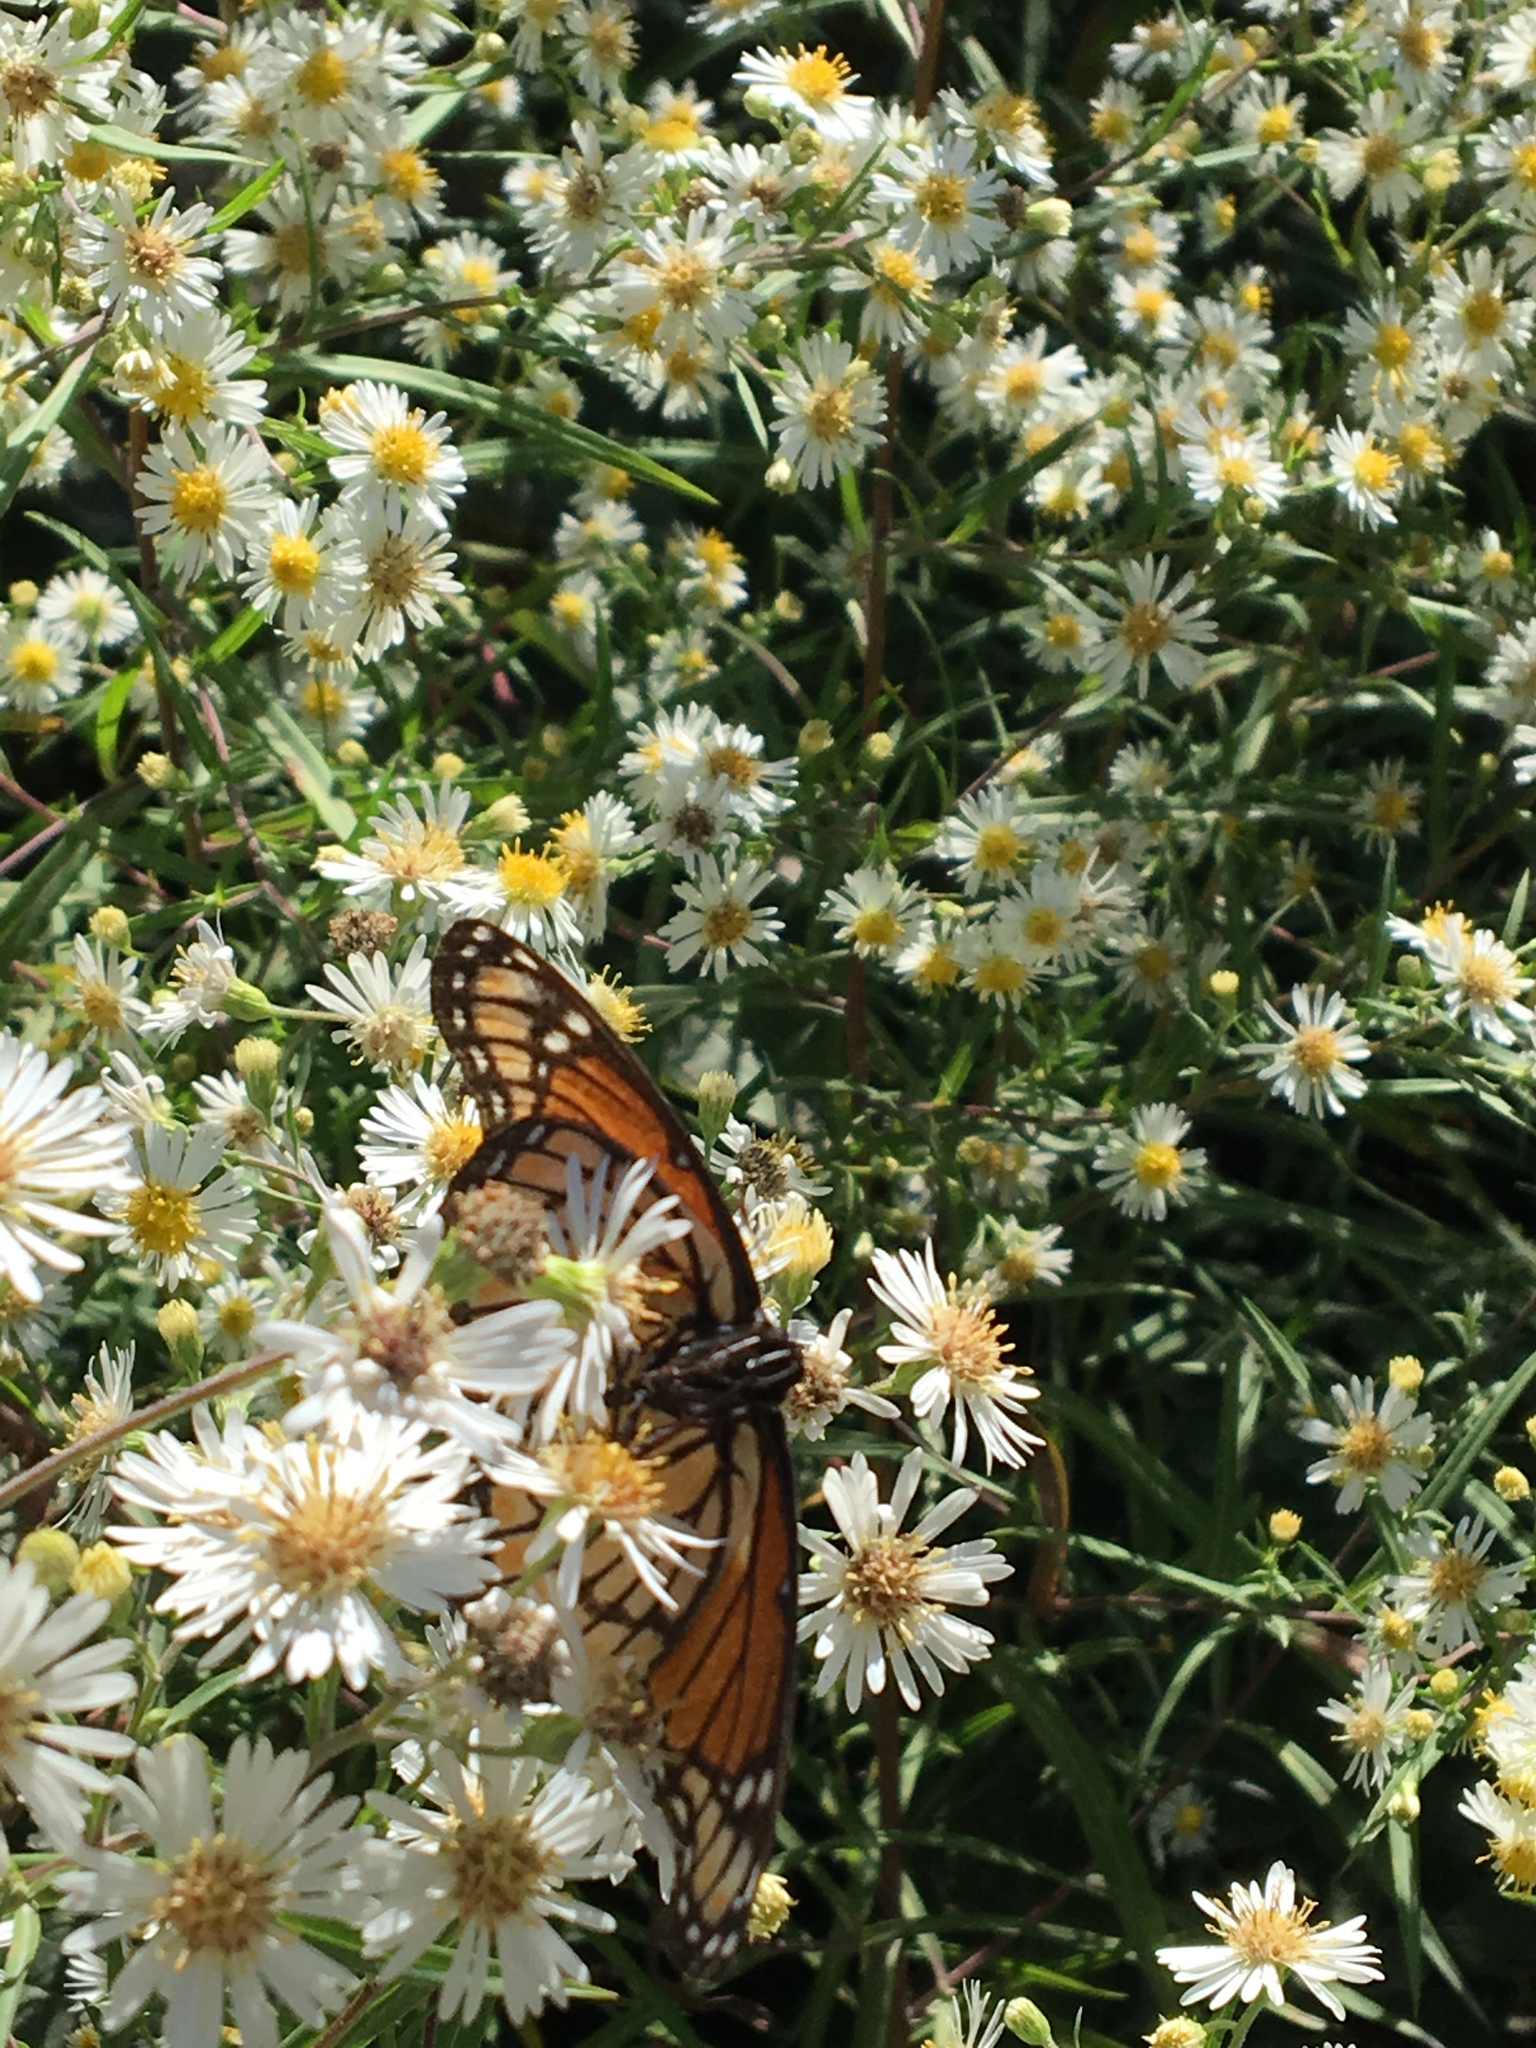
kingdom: Animalia
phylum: Arthropoda
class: Insecta
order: Lepidoptera
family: Nymphalidae
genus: Limenitis
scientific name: Limenitis archippus
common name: Viceroy
